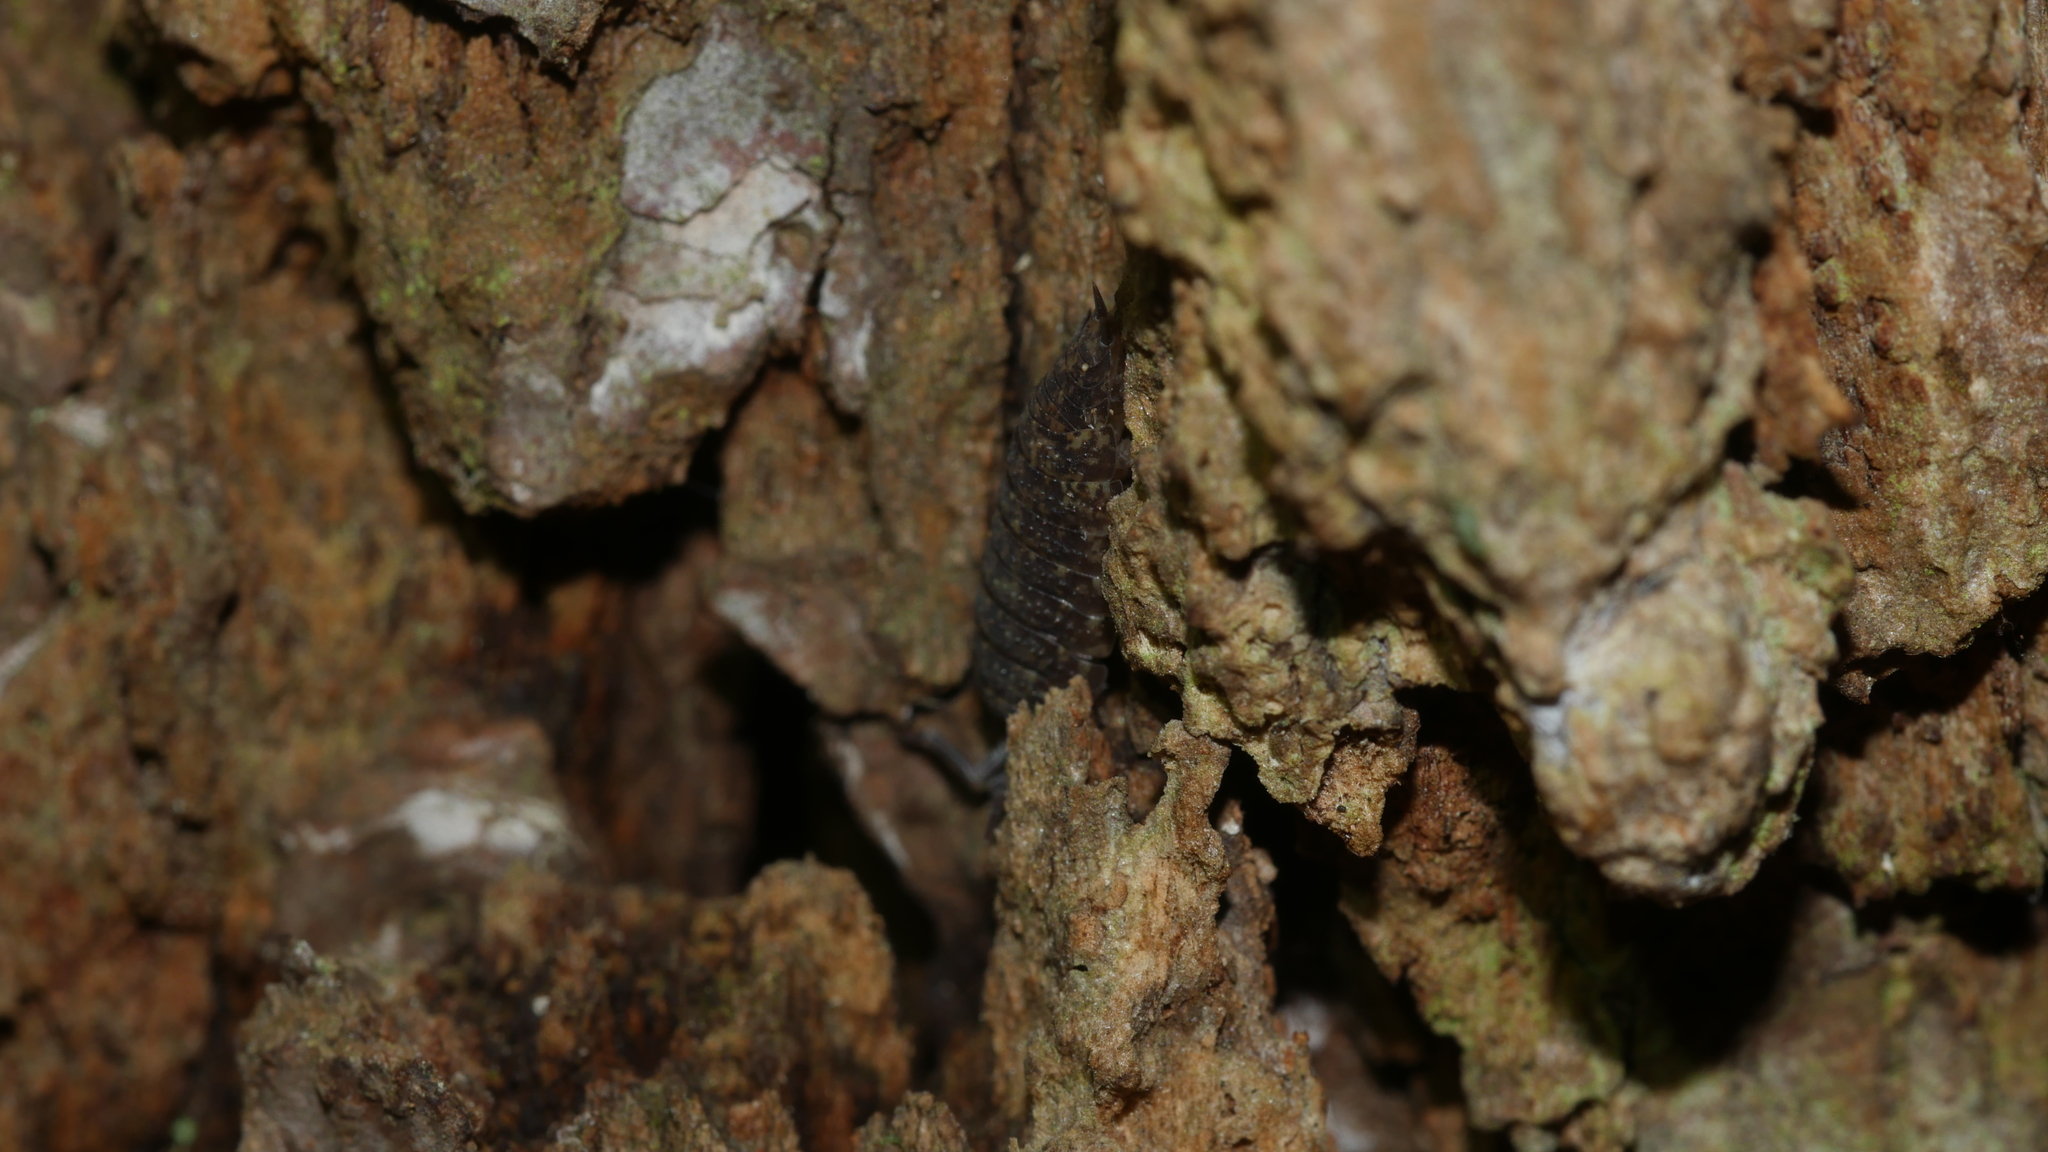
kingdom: Animalia
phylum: Arthropoda
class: Malacostraca
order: Isopoda
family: Porcellionidae
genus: Porcellio
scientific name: Porcellio scaber
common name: Common rough woodlouse
